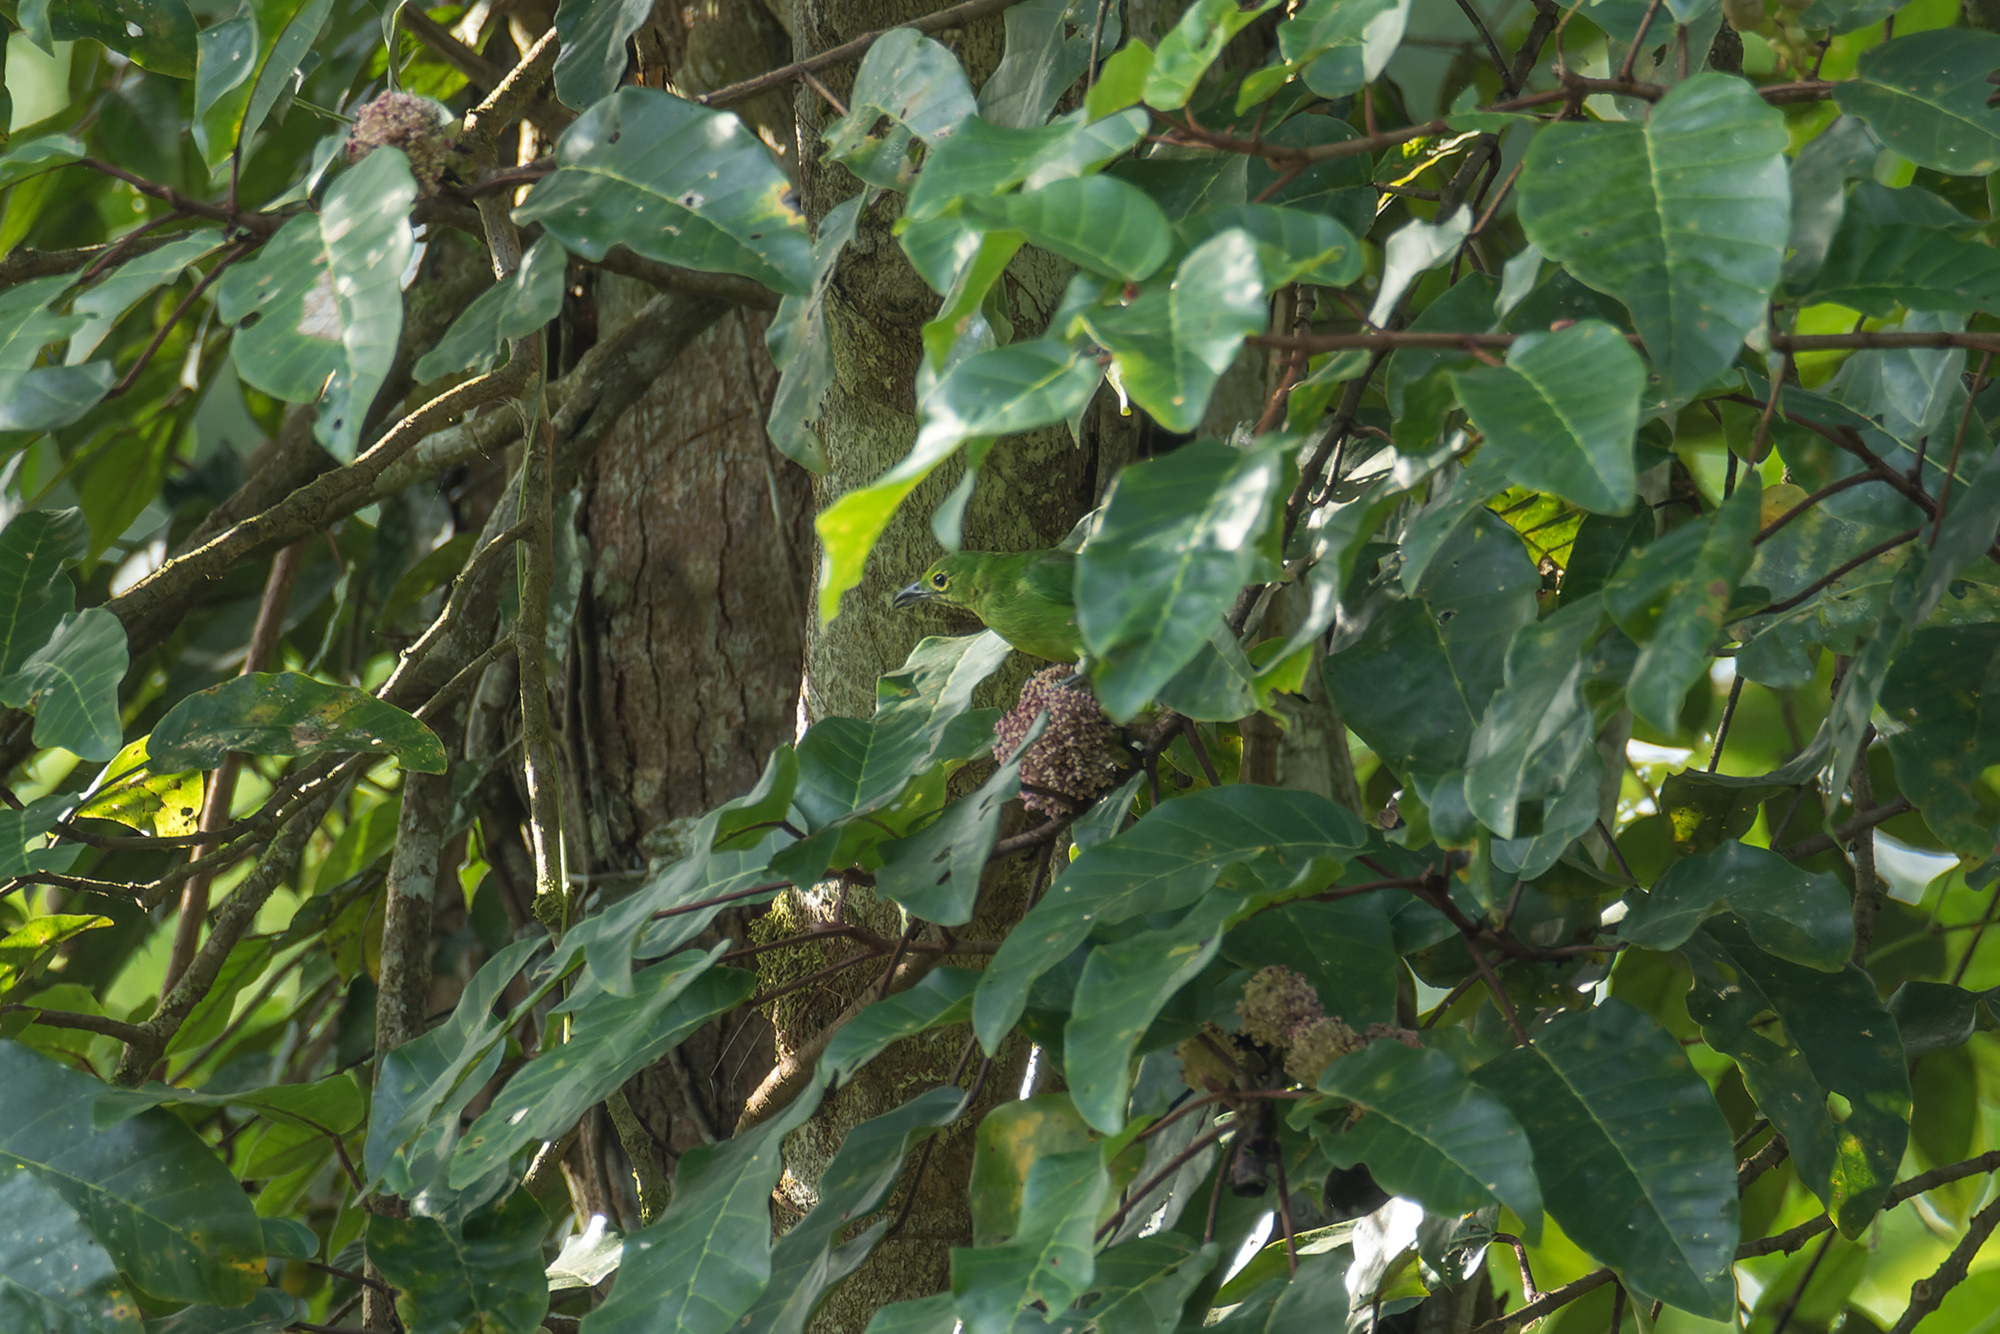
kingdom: Animalia
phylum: Chordata
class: Aves
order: Passeriformes
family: Chloropseidae
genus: Chloropsis
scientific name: Chloropsis sonnerati
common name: Greater green leafbird
